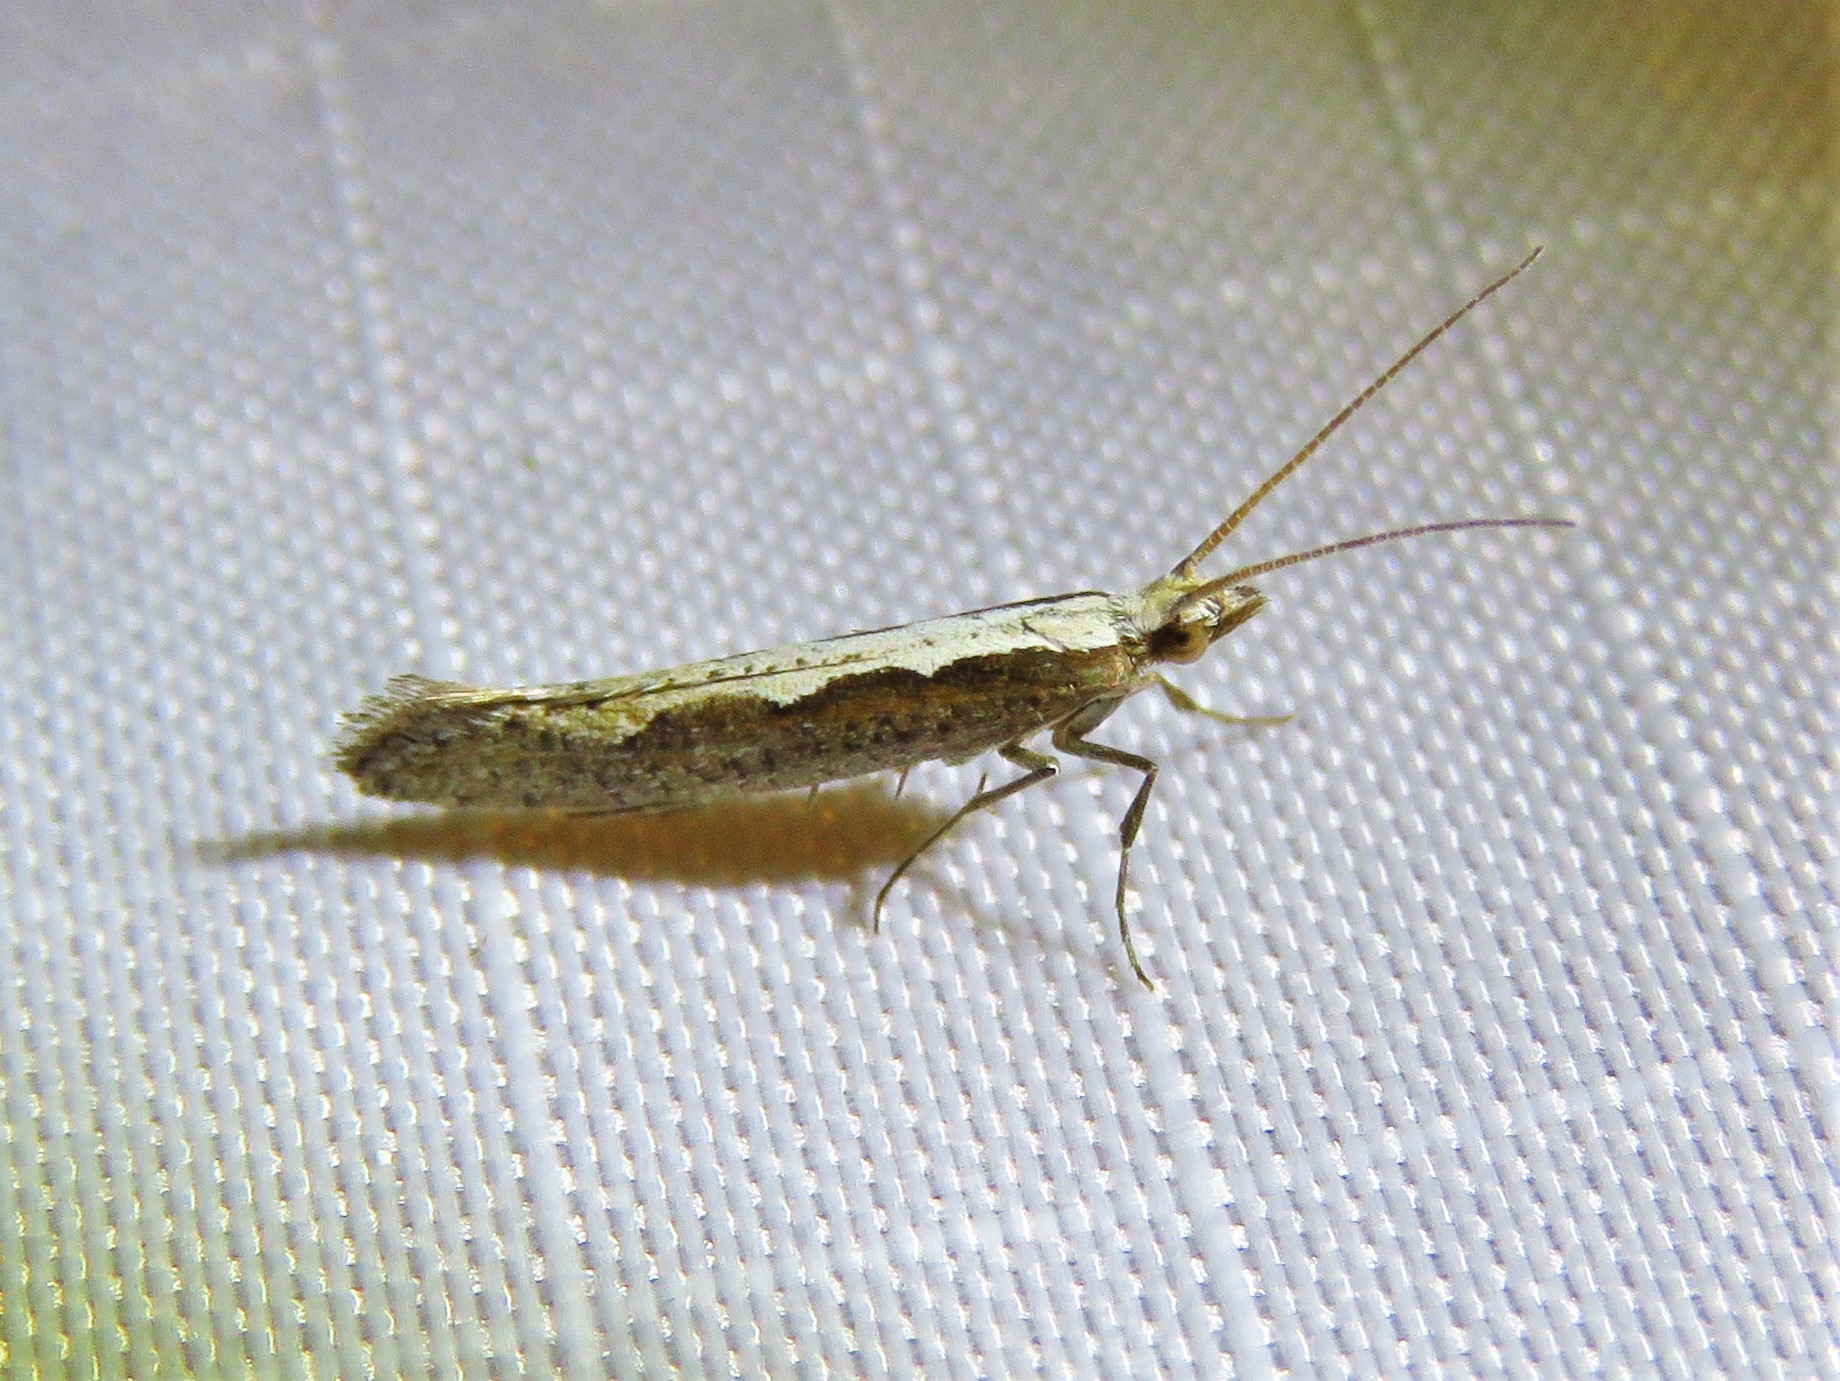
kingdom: Animalia
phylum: Arthropoda
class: Insecta
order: Lepidoptera
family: Plutellidae
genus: Plutella
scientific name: Plutella xylostella
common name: Diamond-back moth
